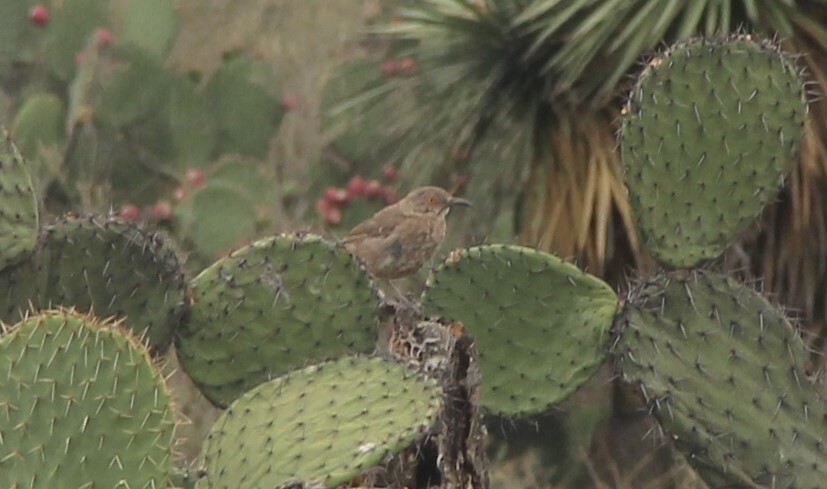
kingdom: Animalia
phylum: Chordata
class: Aves
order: Passeriformes
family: Mimidae
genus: Toxostoma
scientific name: Toxostoma curvirostre
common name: Curve-billed thrasher
